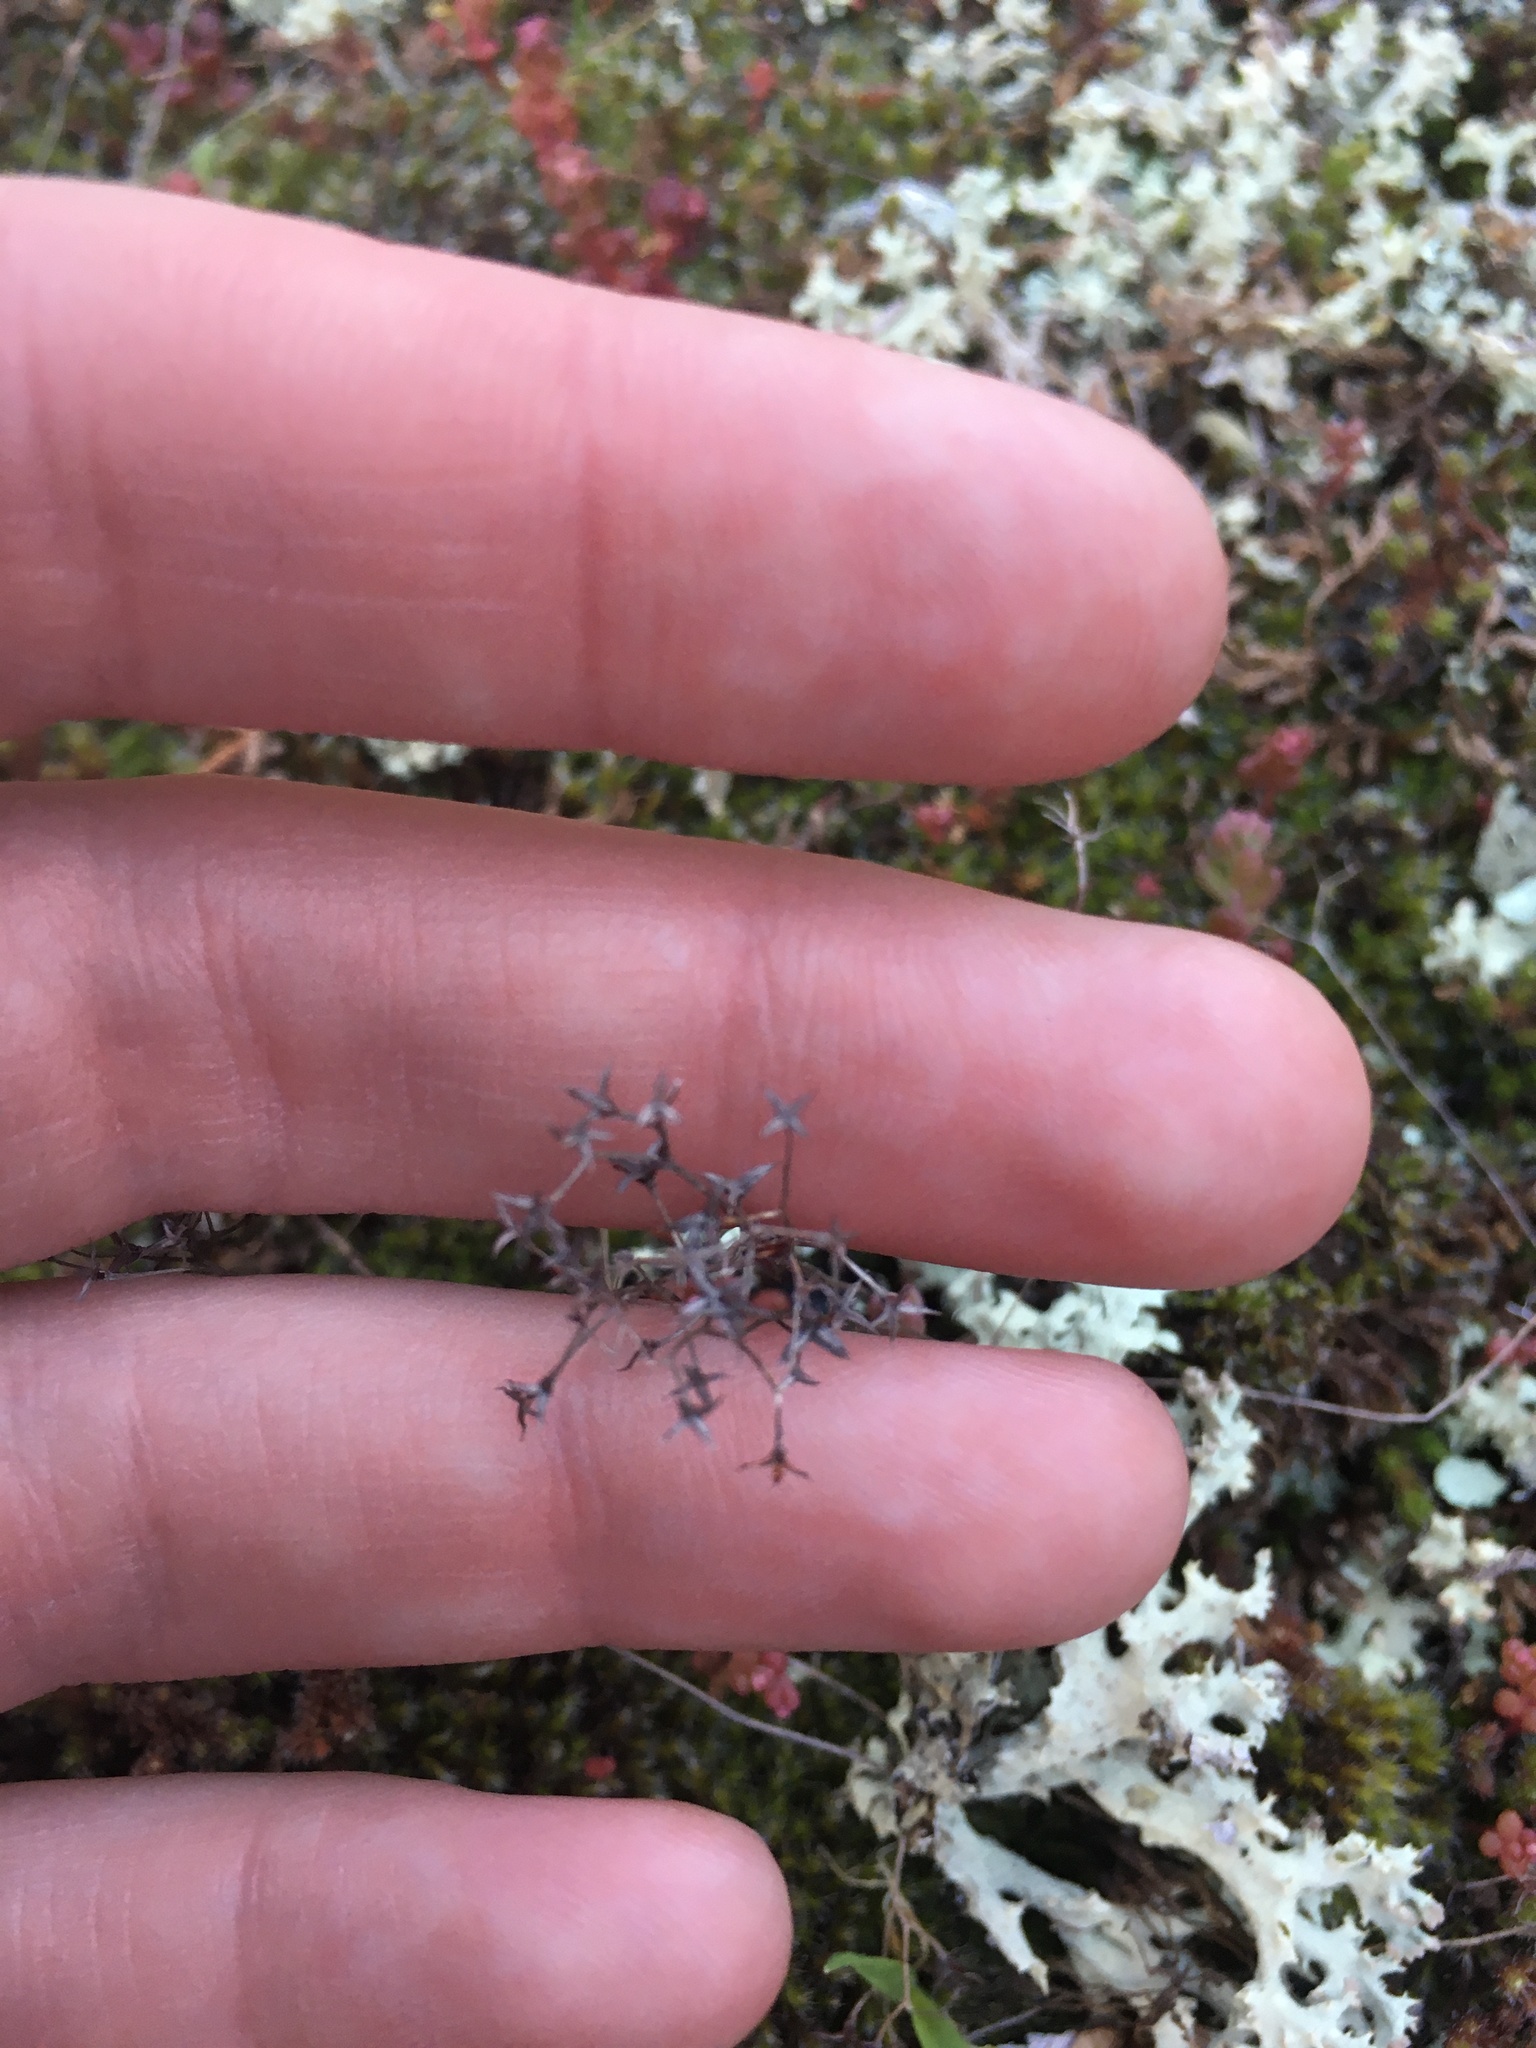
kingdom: Plantae
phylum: Tracheophyta
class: Magnoliopsida
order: Saxifragales
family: Crassulaceae
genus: Sedum
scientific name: Sedum smallii
